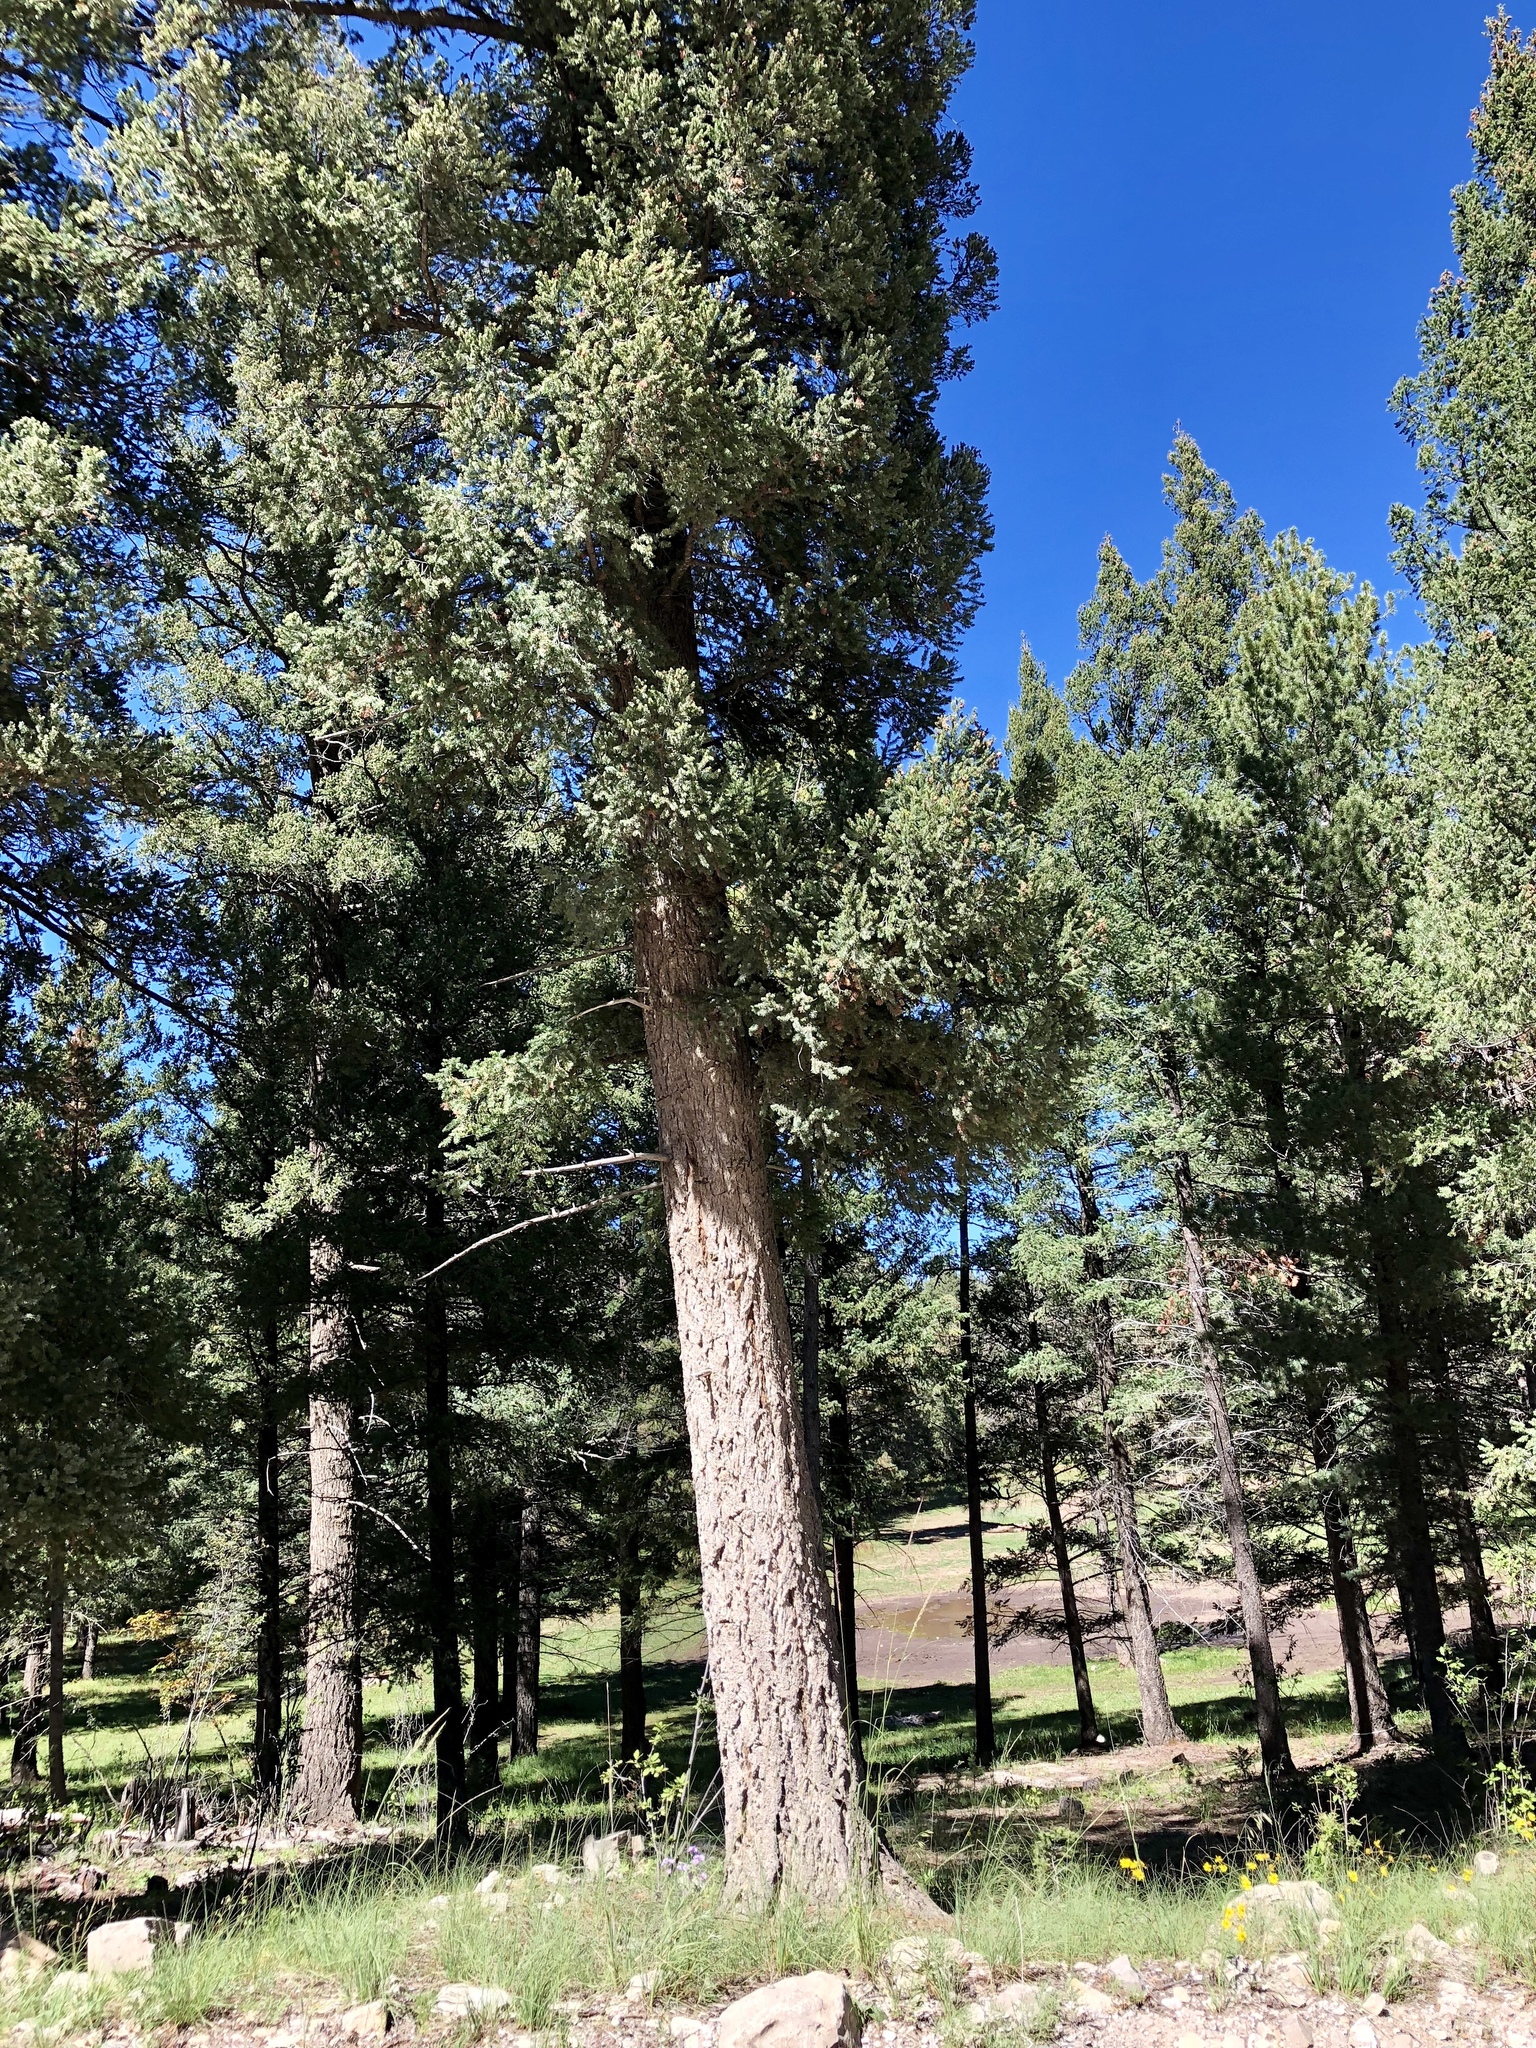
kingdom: Plantae
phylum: Tracheophyta
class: Pinopsida
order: Pinales
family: Pinaceae
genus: Abies
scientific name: Abies concolor
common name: Colorado fir
